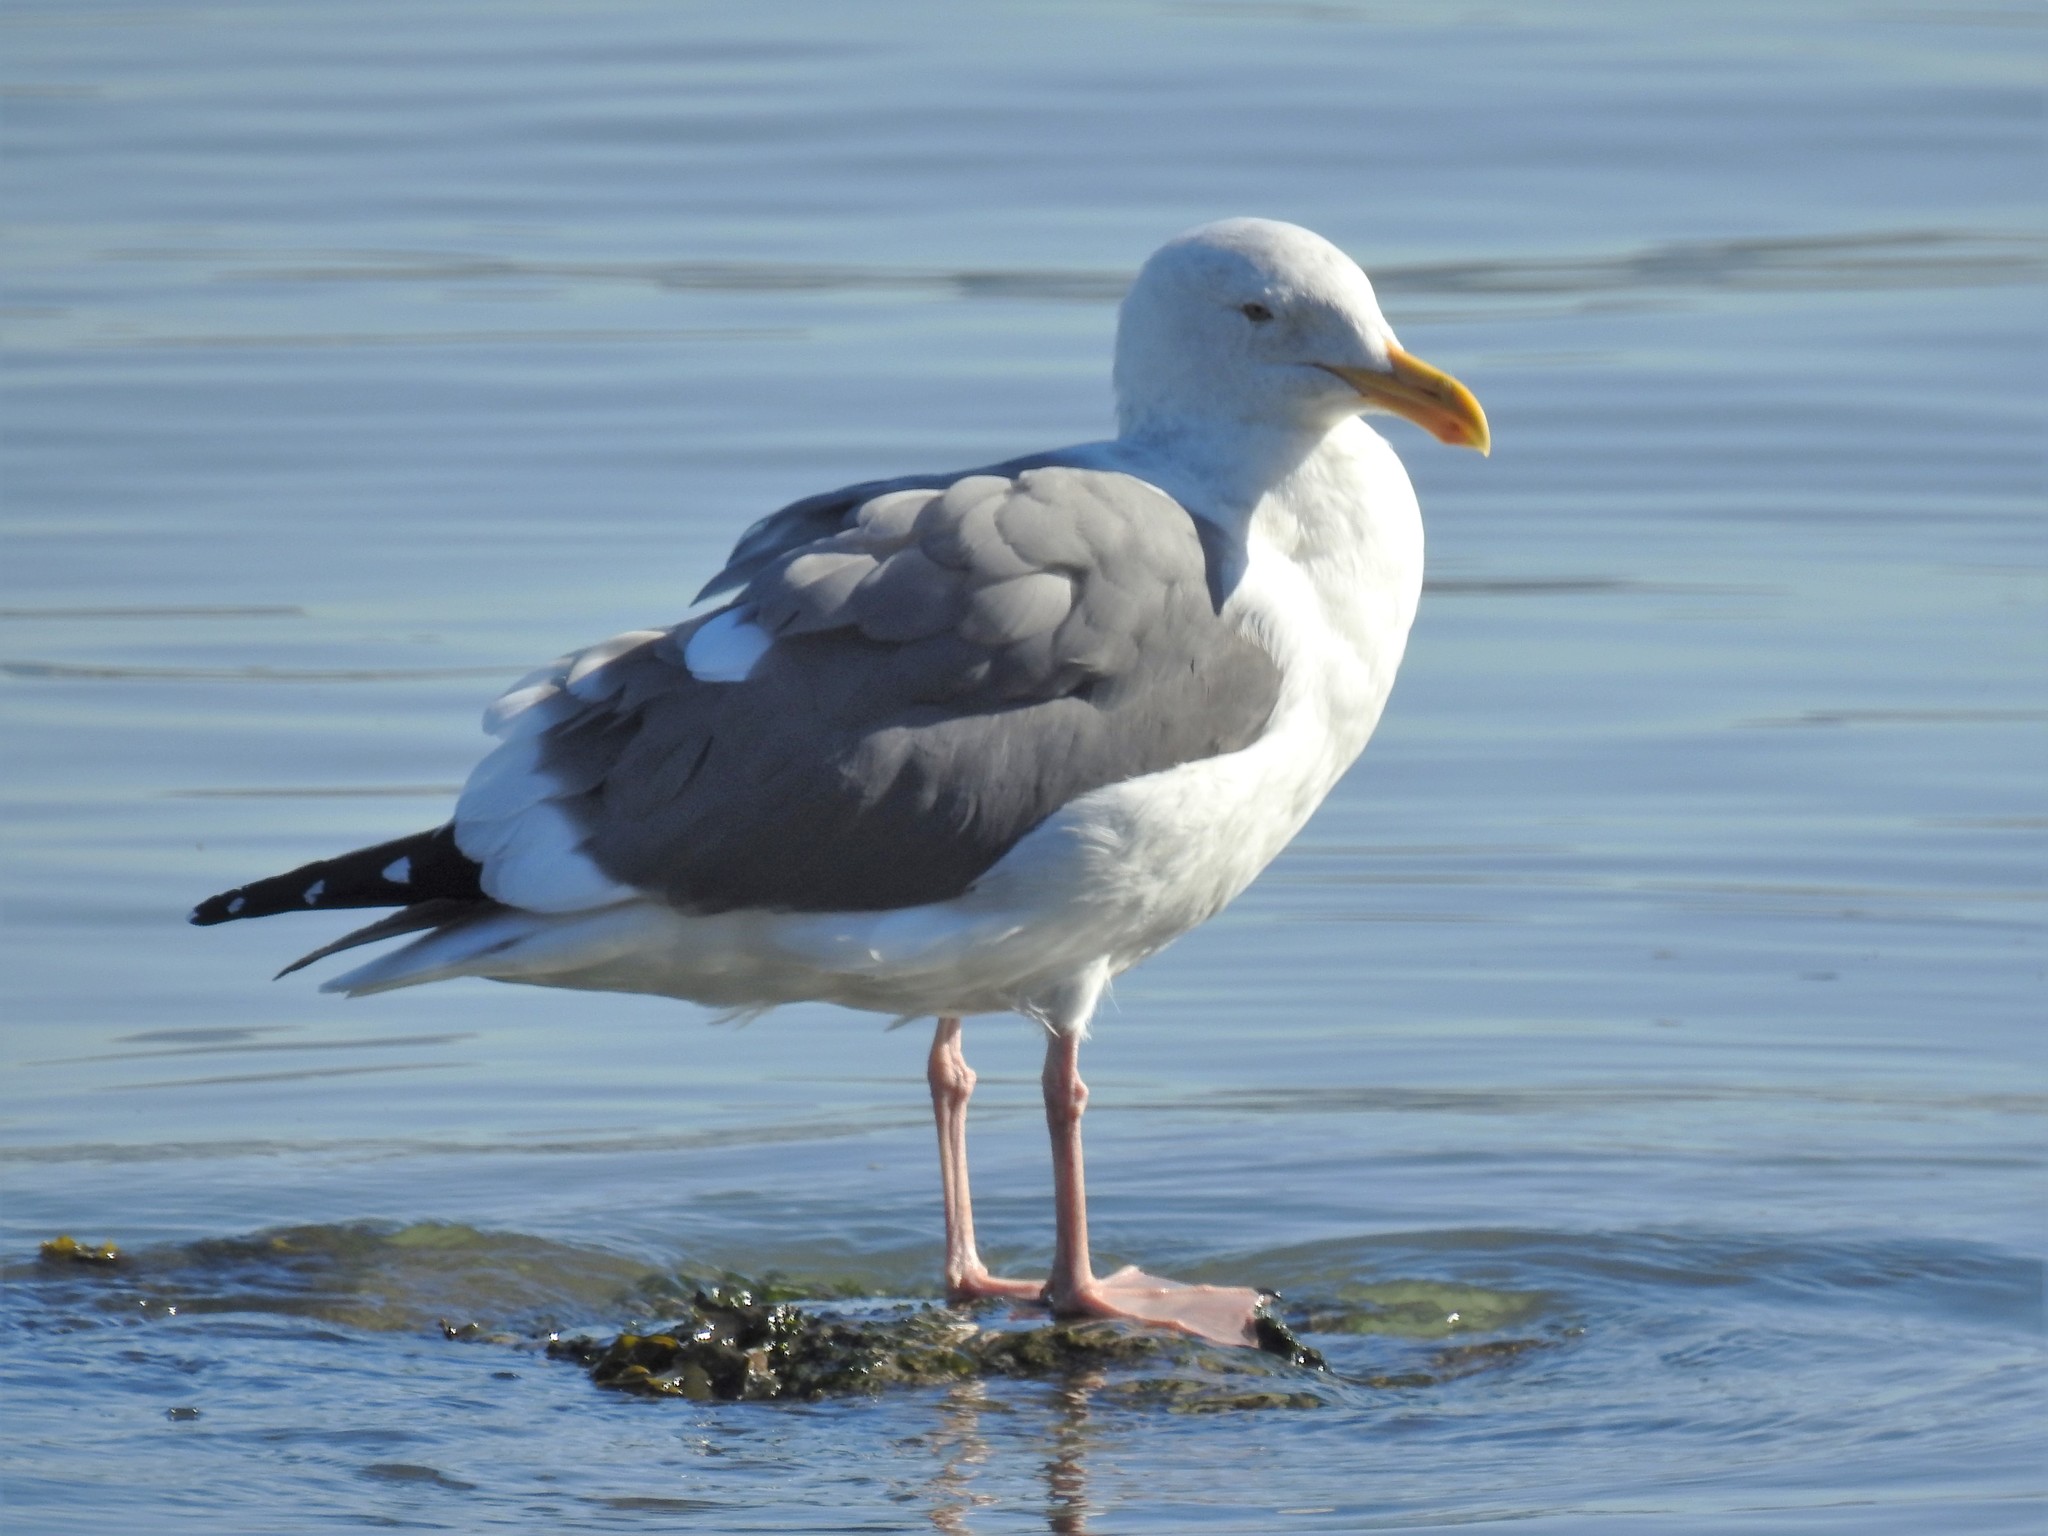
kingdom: Animalia
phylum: Chordata
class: Aves
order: Charadriiformes
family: Laridae
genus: Larus
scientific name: Larus occidentalis
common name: Western gull
